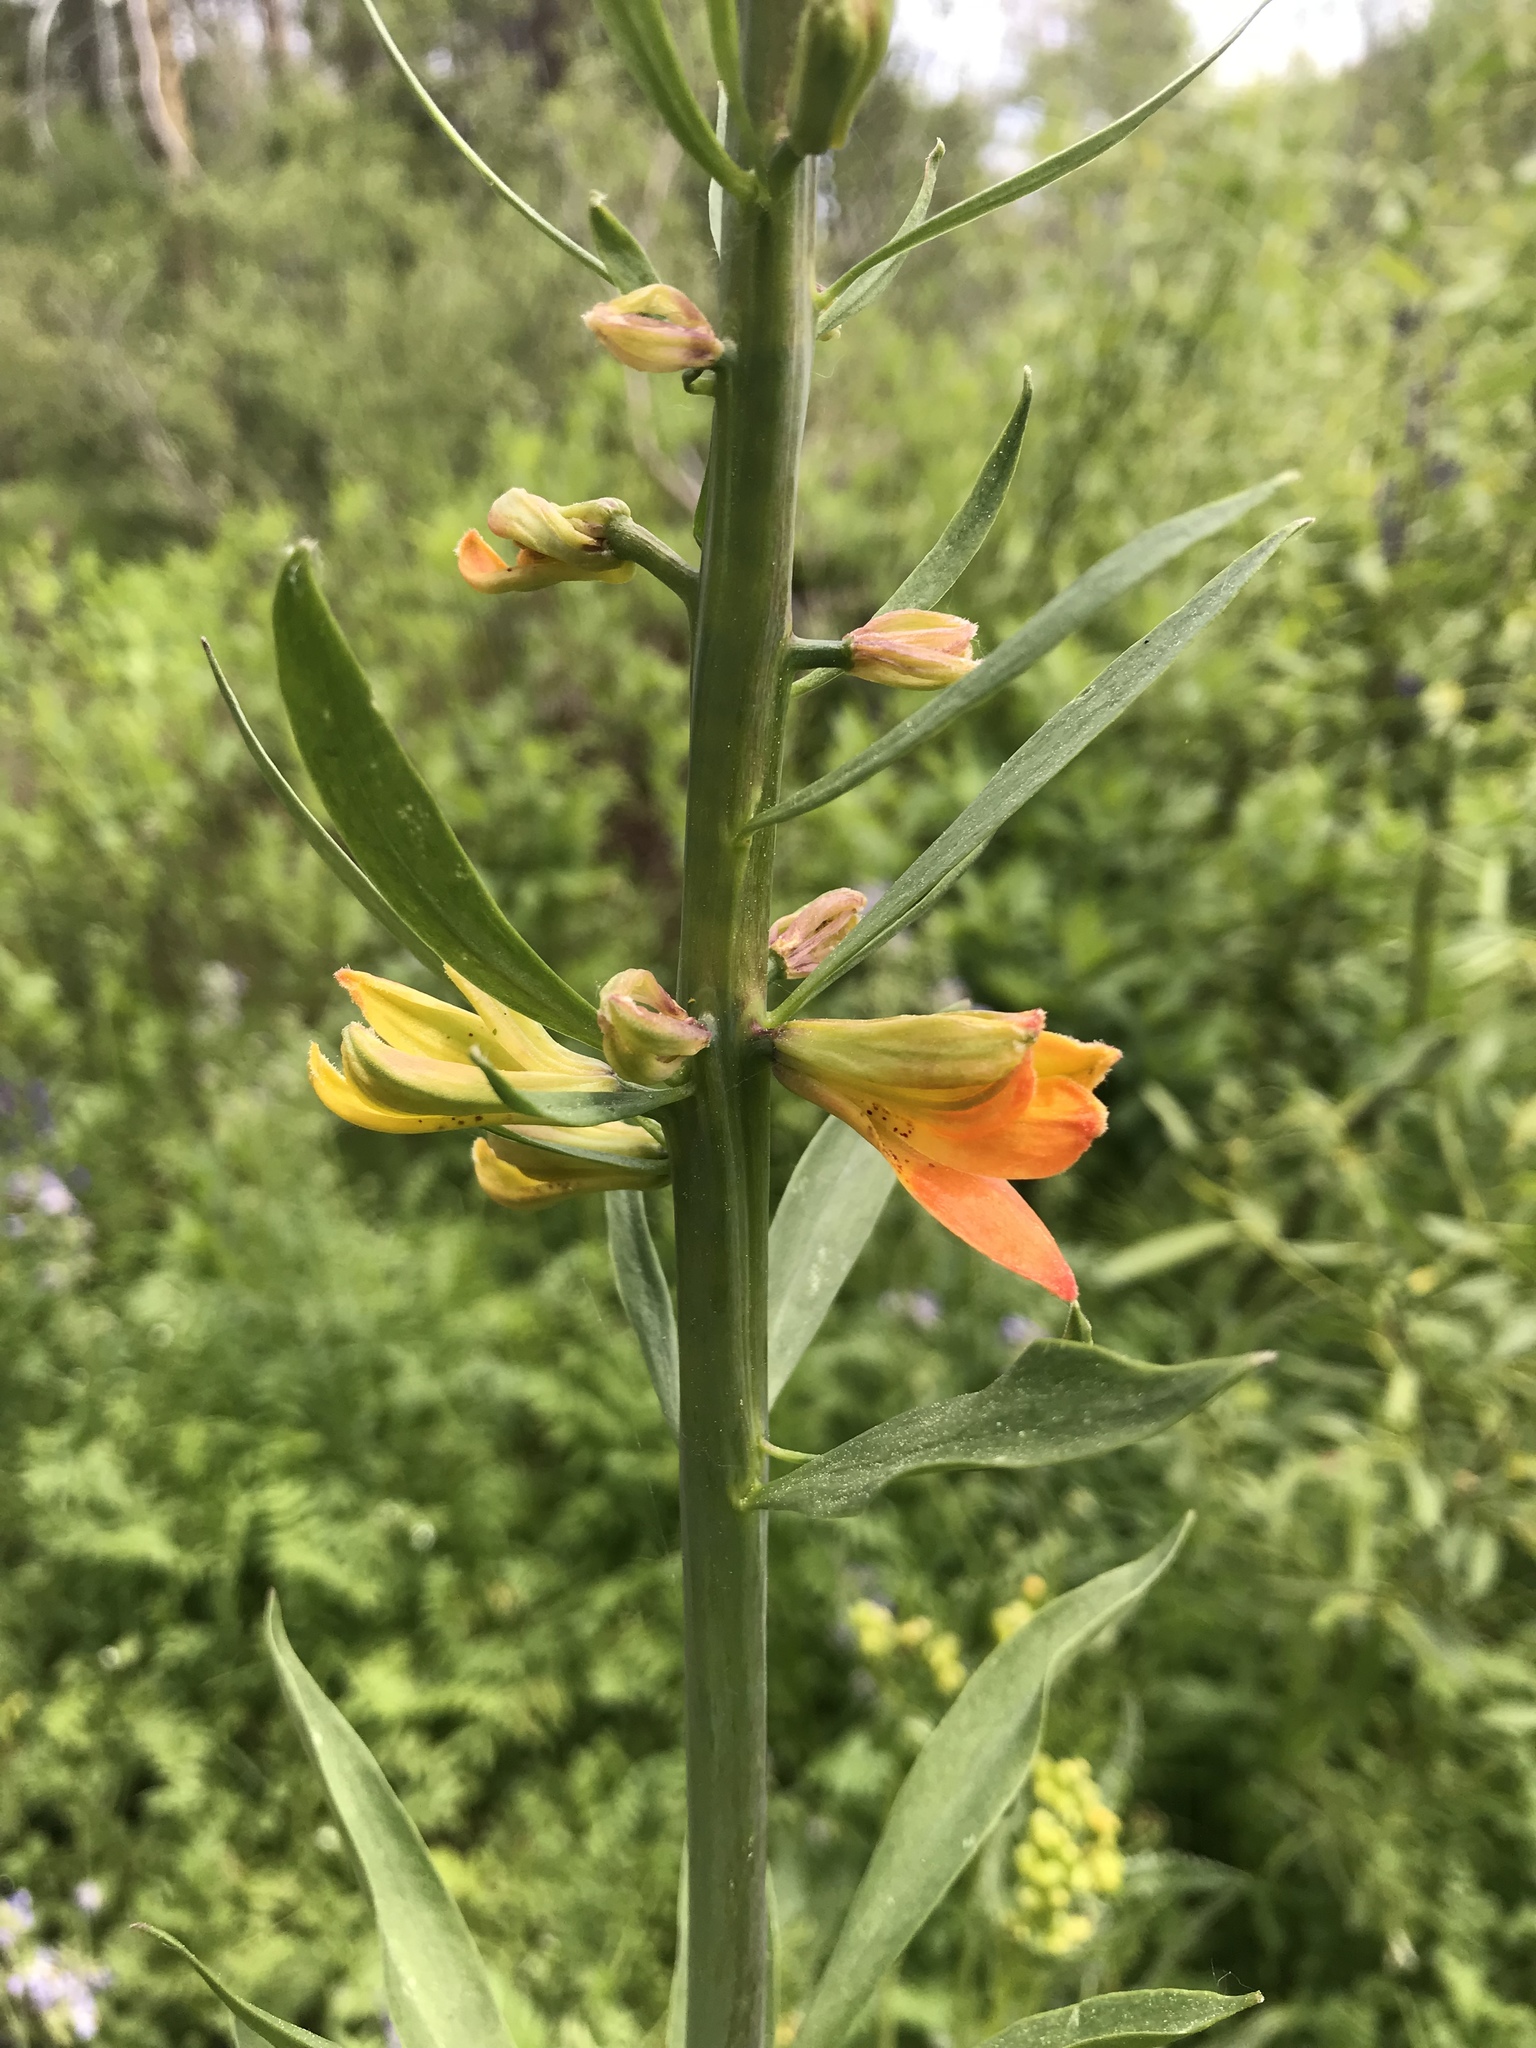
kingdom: Plantae
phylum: Tracheophyta
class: Liliopsida
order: Liliales
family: Liliaceae
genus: Lilium
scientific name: Lilium parvum
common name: Alpine lily
